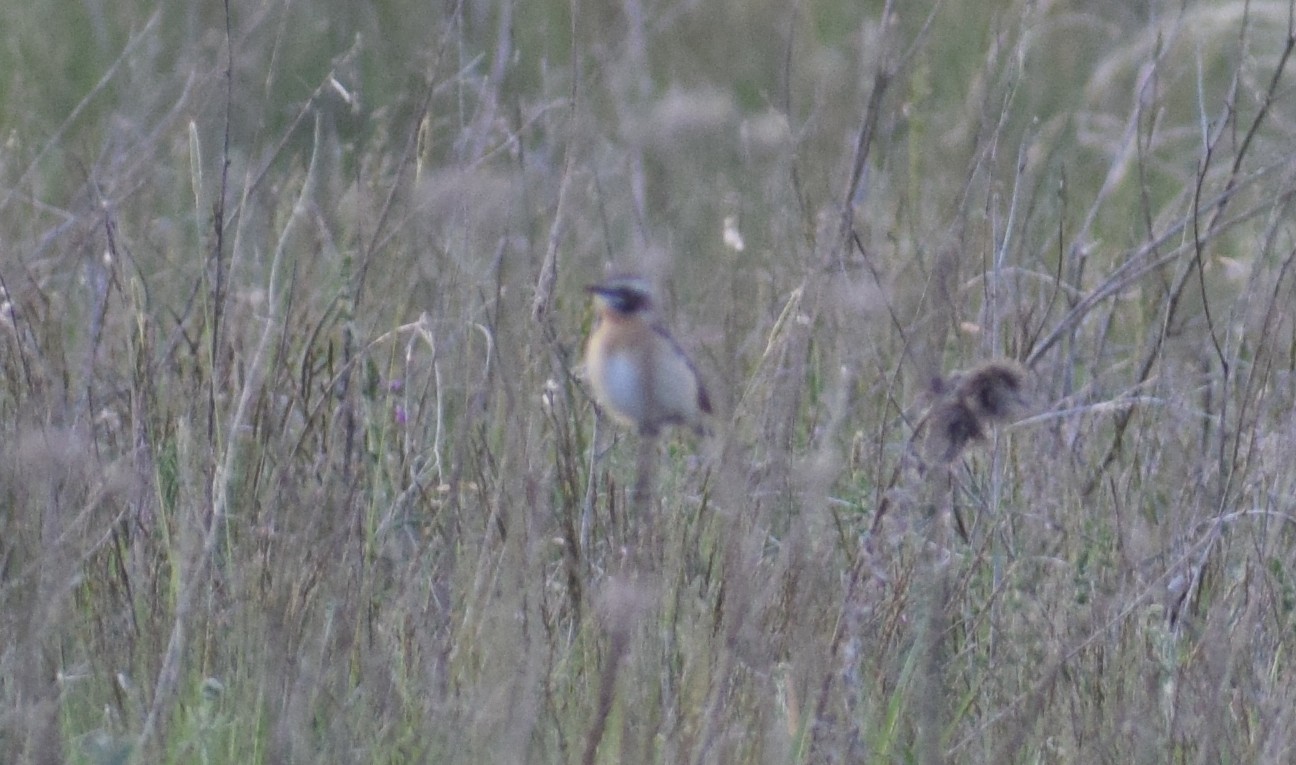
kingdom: Animalia
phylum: Chordata
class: Aves
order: Passeriformes
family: Muscicapidae
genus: Saxicola
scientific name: Saxicola rubetra
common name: Whinchat
